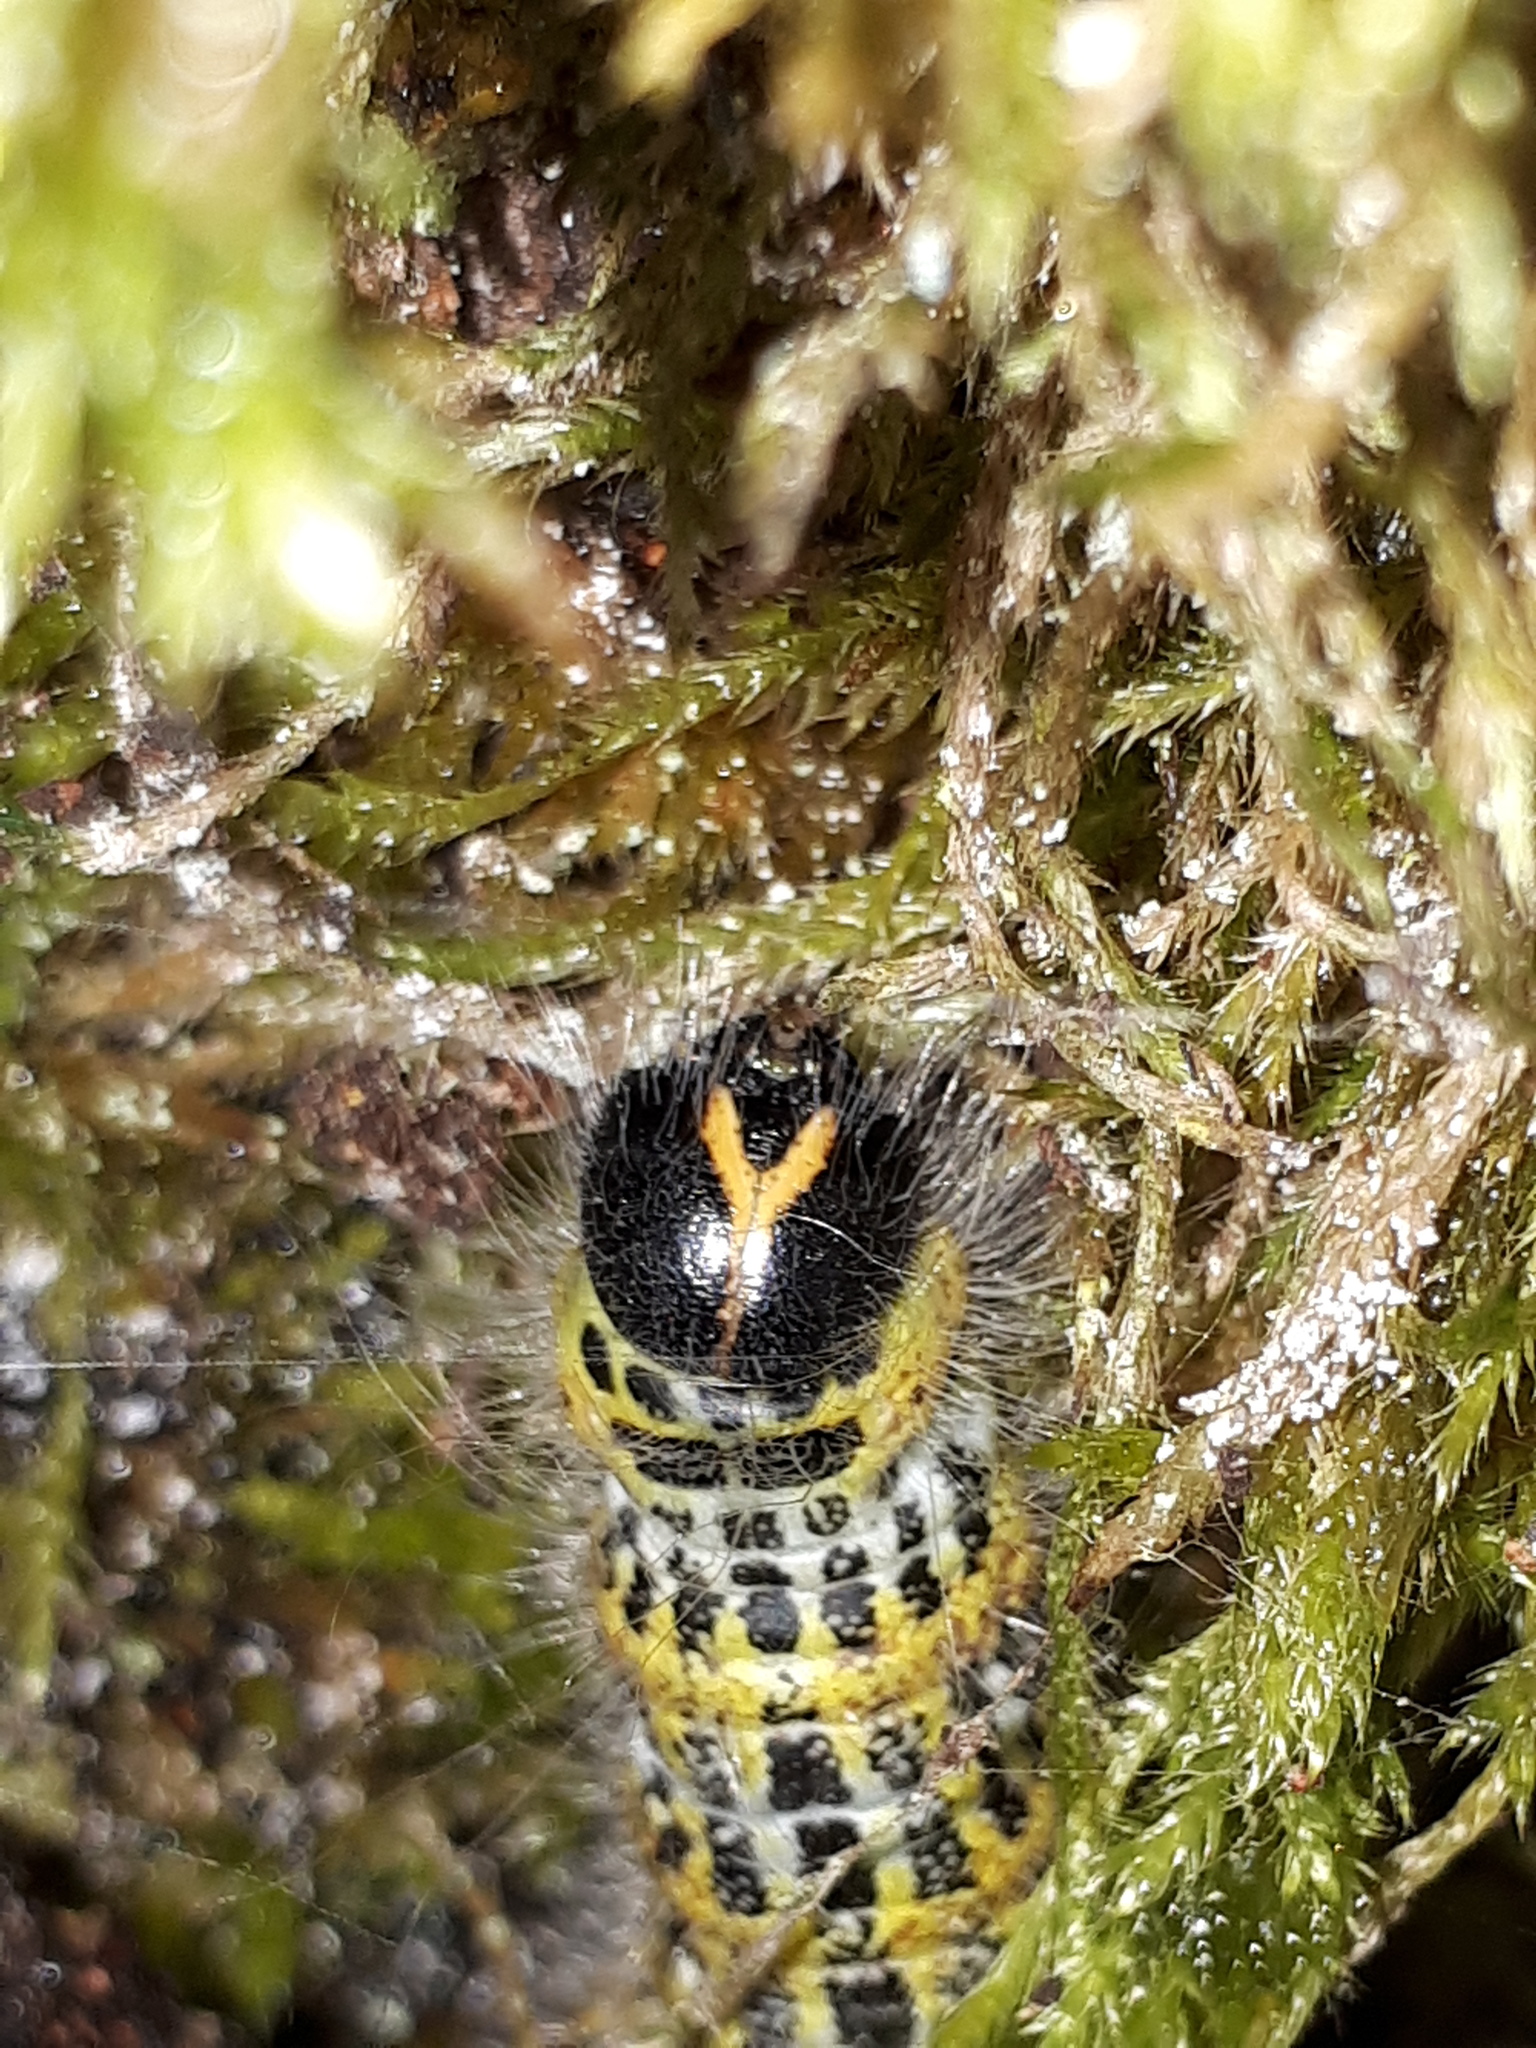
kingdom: Animalia
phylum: Arthropoda
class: Insecta
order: Lepidoptera
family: Notodontidae
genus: Phalera
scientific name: Phalera bucephala
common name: Buff-tip
